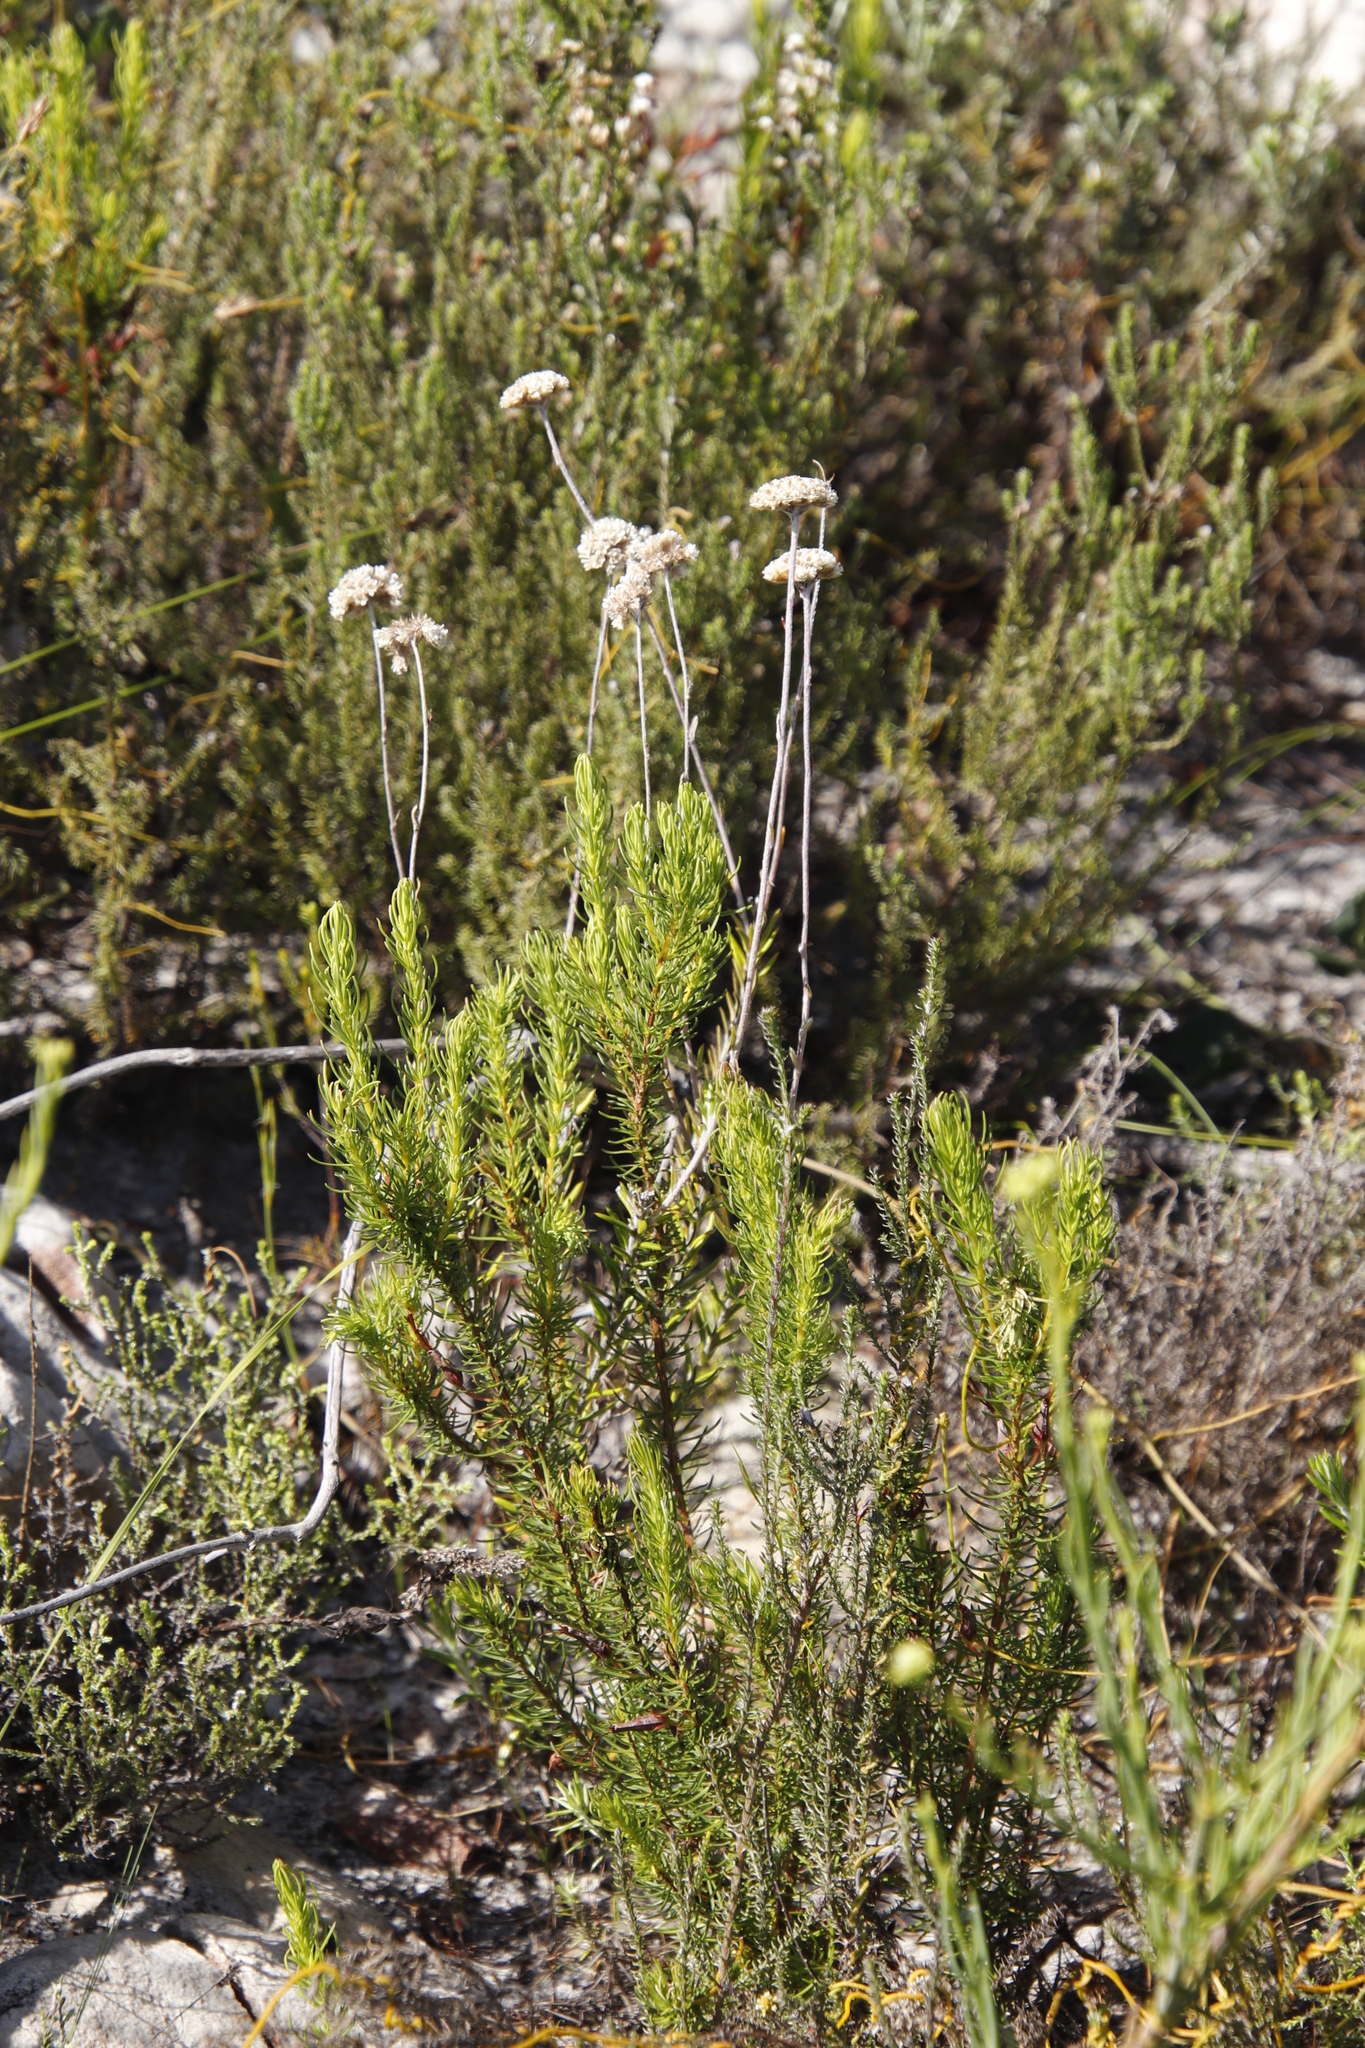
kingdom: Plantae
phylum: Tracheophyta
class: Magnoliopsida
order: Asterales
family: Asteraceae
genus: Anaxeton
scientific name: Anaxeton laeve
